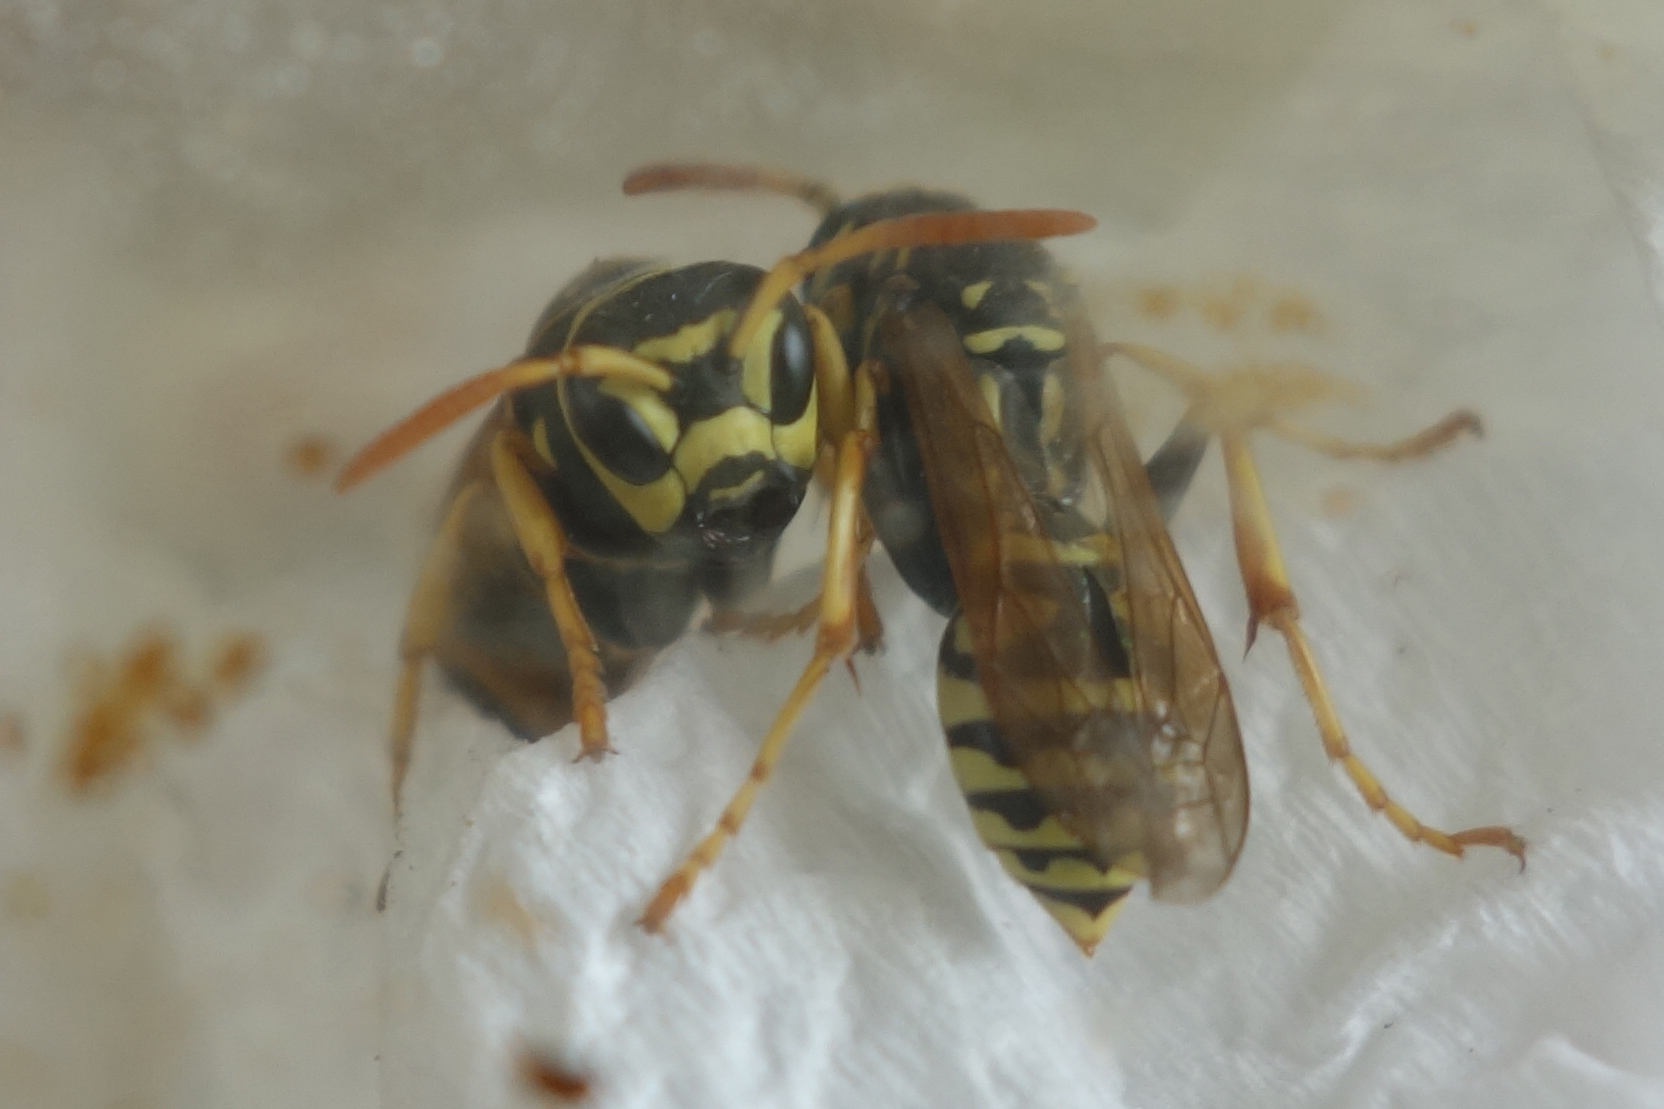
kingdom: Animalia
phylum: Arthropoda
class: Insecta
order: Hymenoptera
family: Eumenidae
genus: Polistes
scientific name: Polistes semenowi
